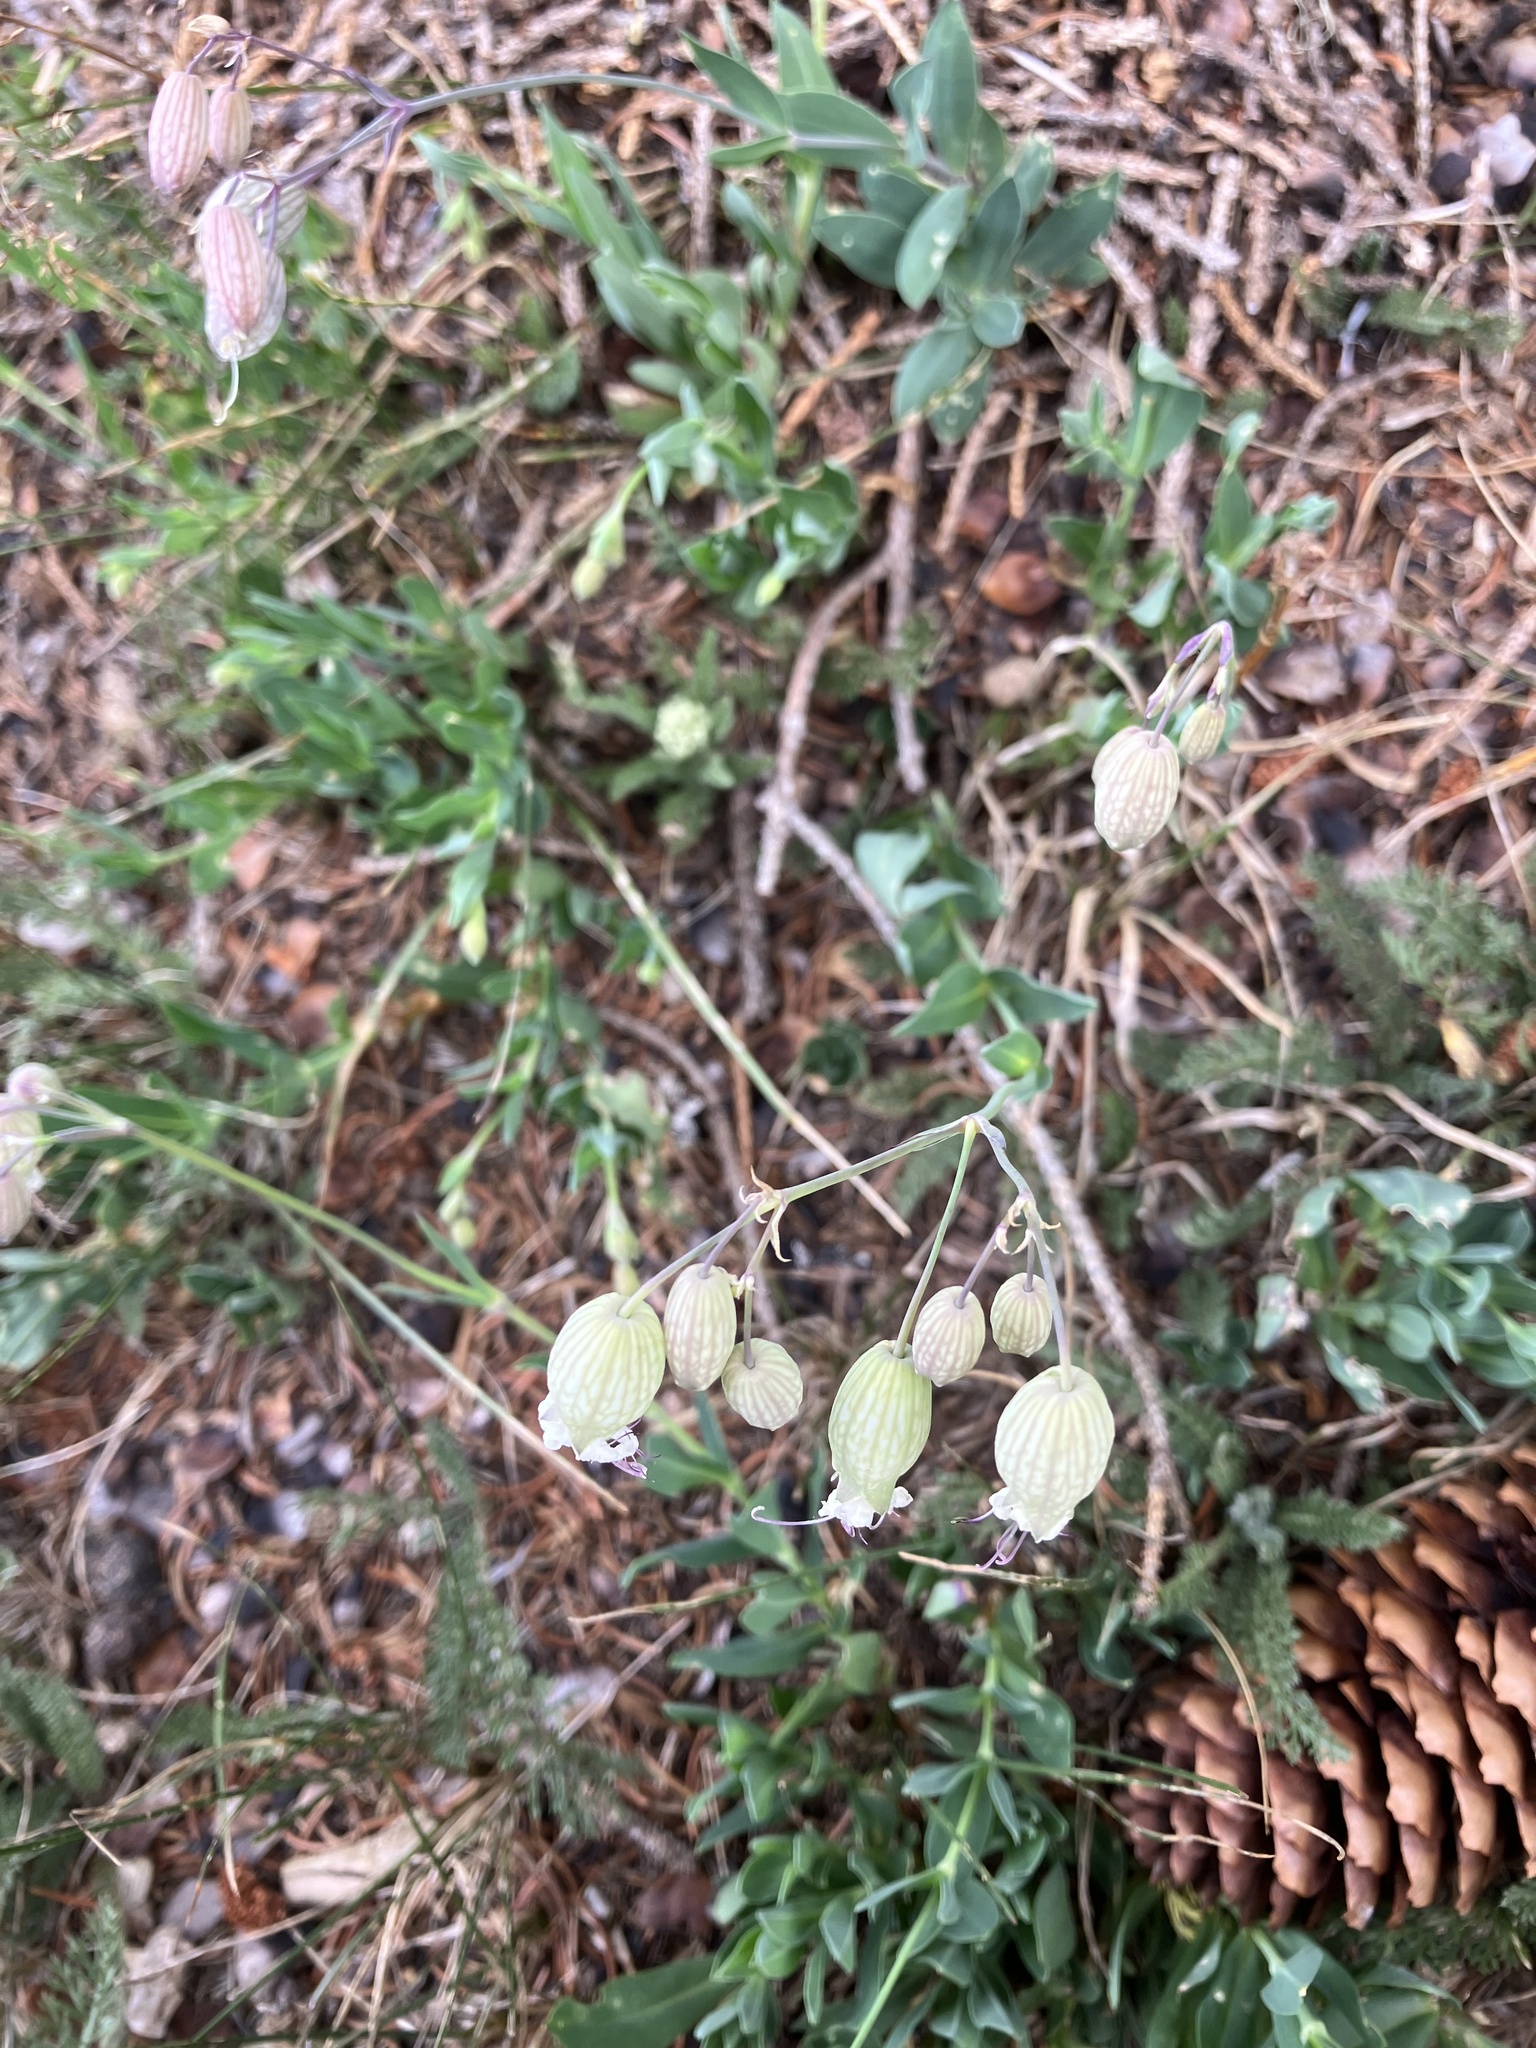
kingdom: Plantae
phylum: Tracheophyta
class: Magnoliopsida
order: Caryophyllales
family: Caryophyllaceae
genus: Silene
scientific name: Silene vulgaris
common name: Bladder campion
